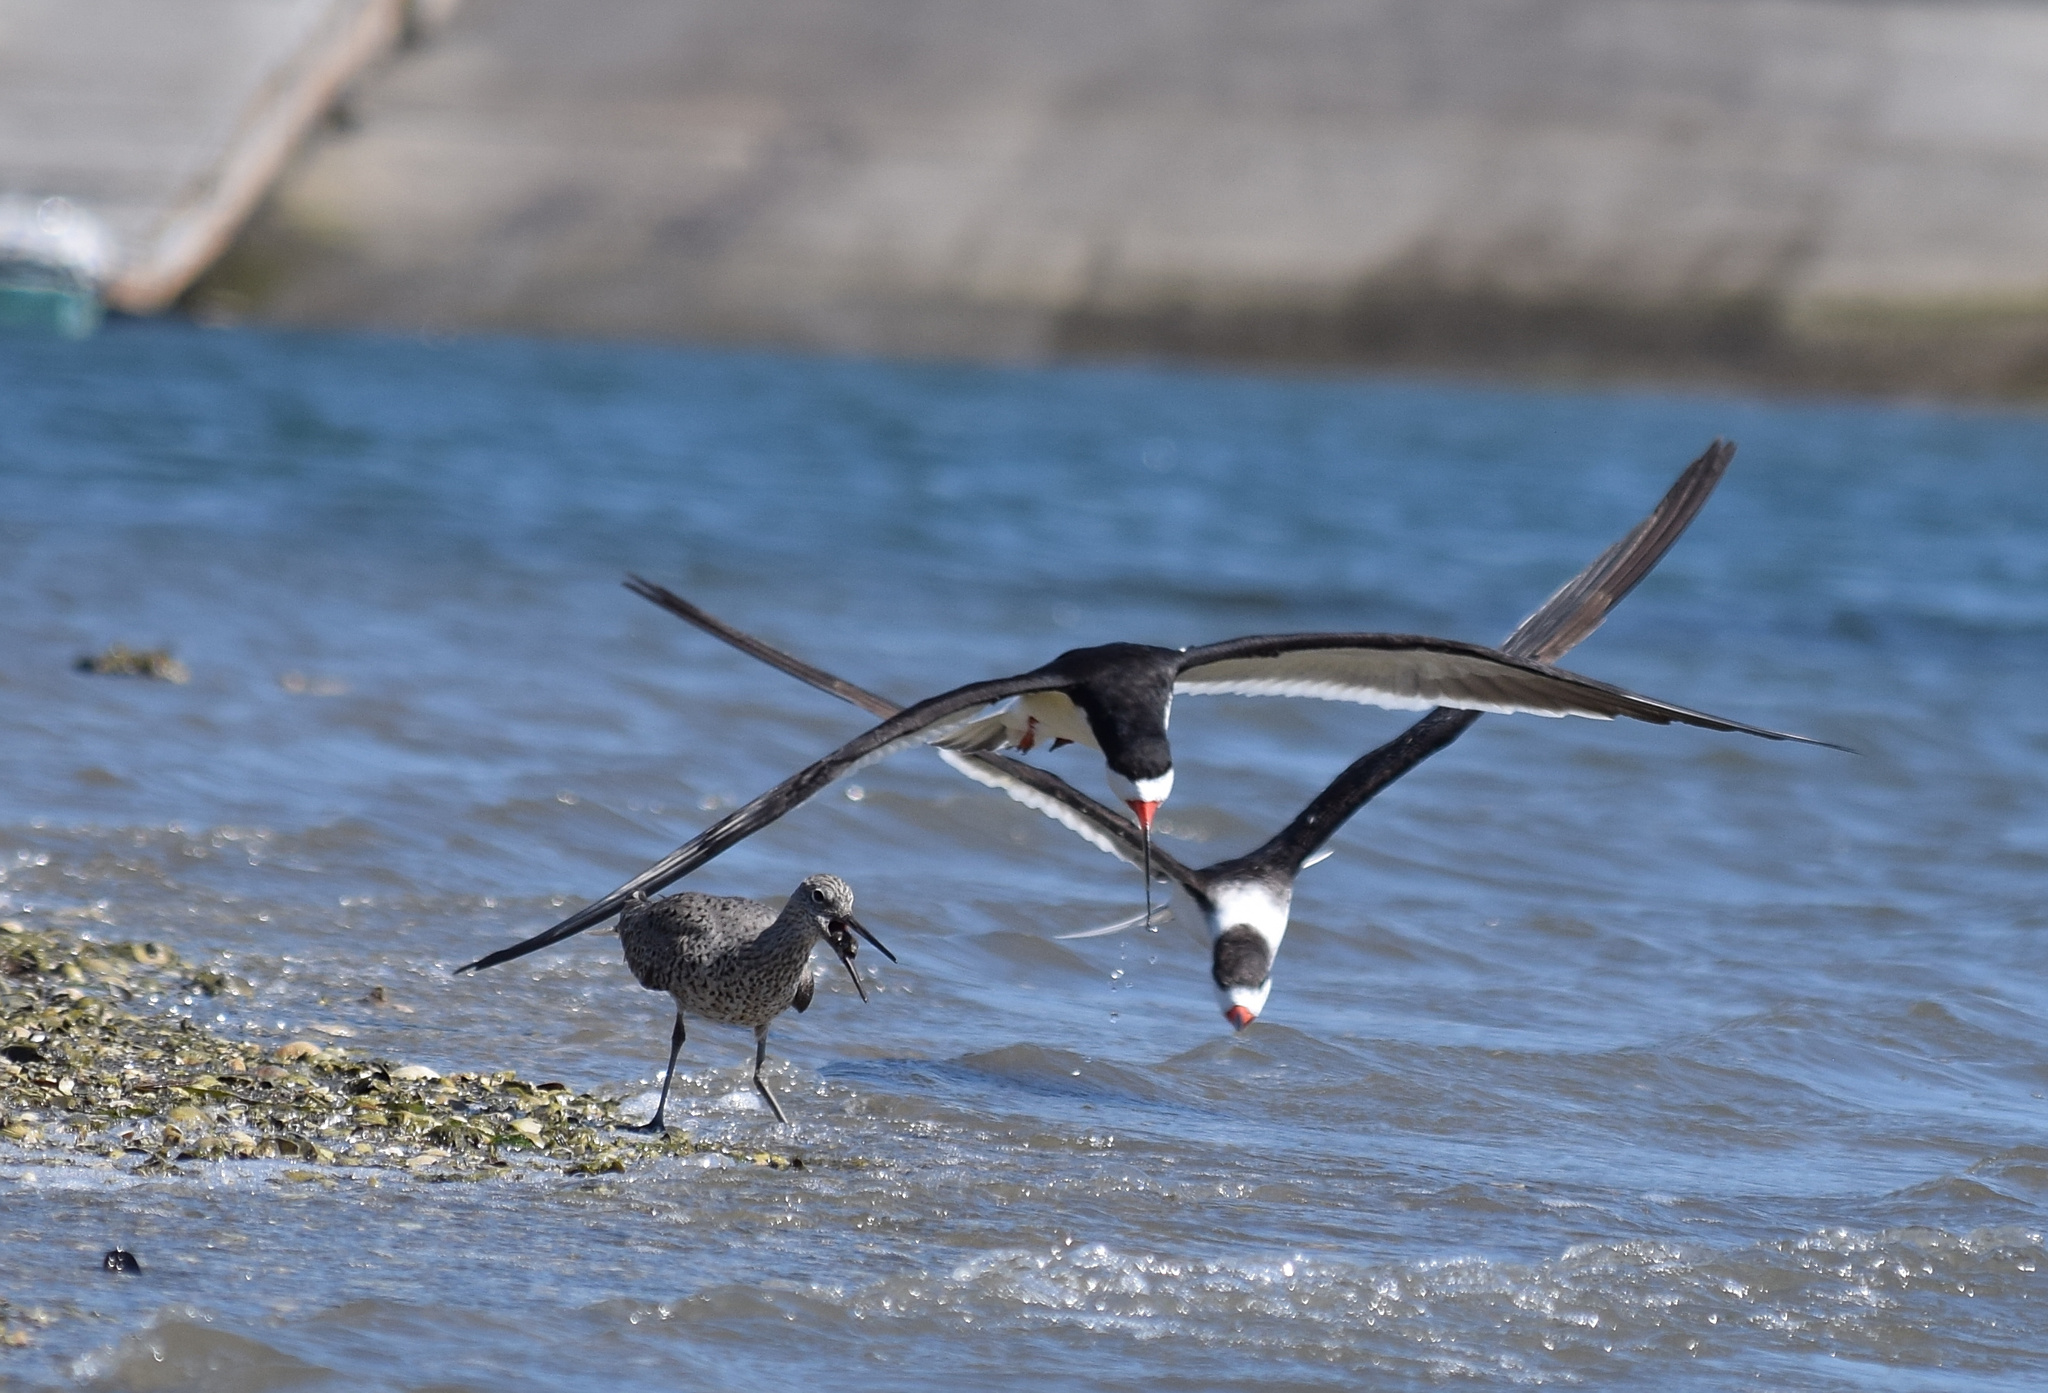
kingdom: Animalia
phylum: Chordata
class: Aves
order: Charadriiformes
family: Laridae
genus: Rynchops
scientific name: Rynchops niger
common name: Black skimmer
